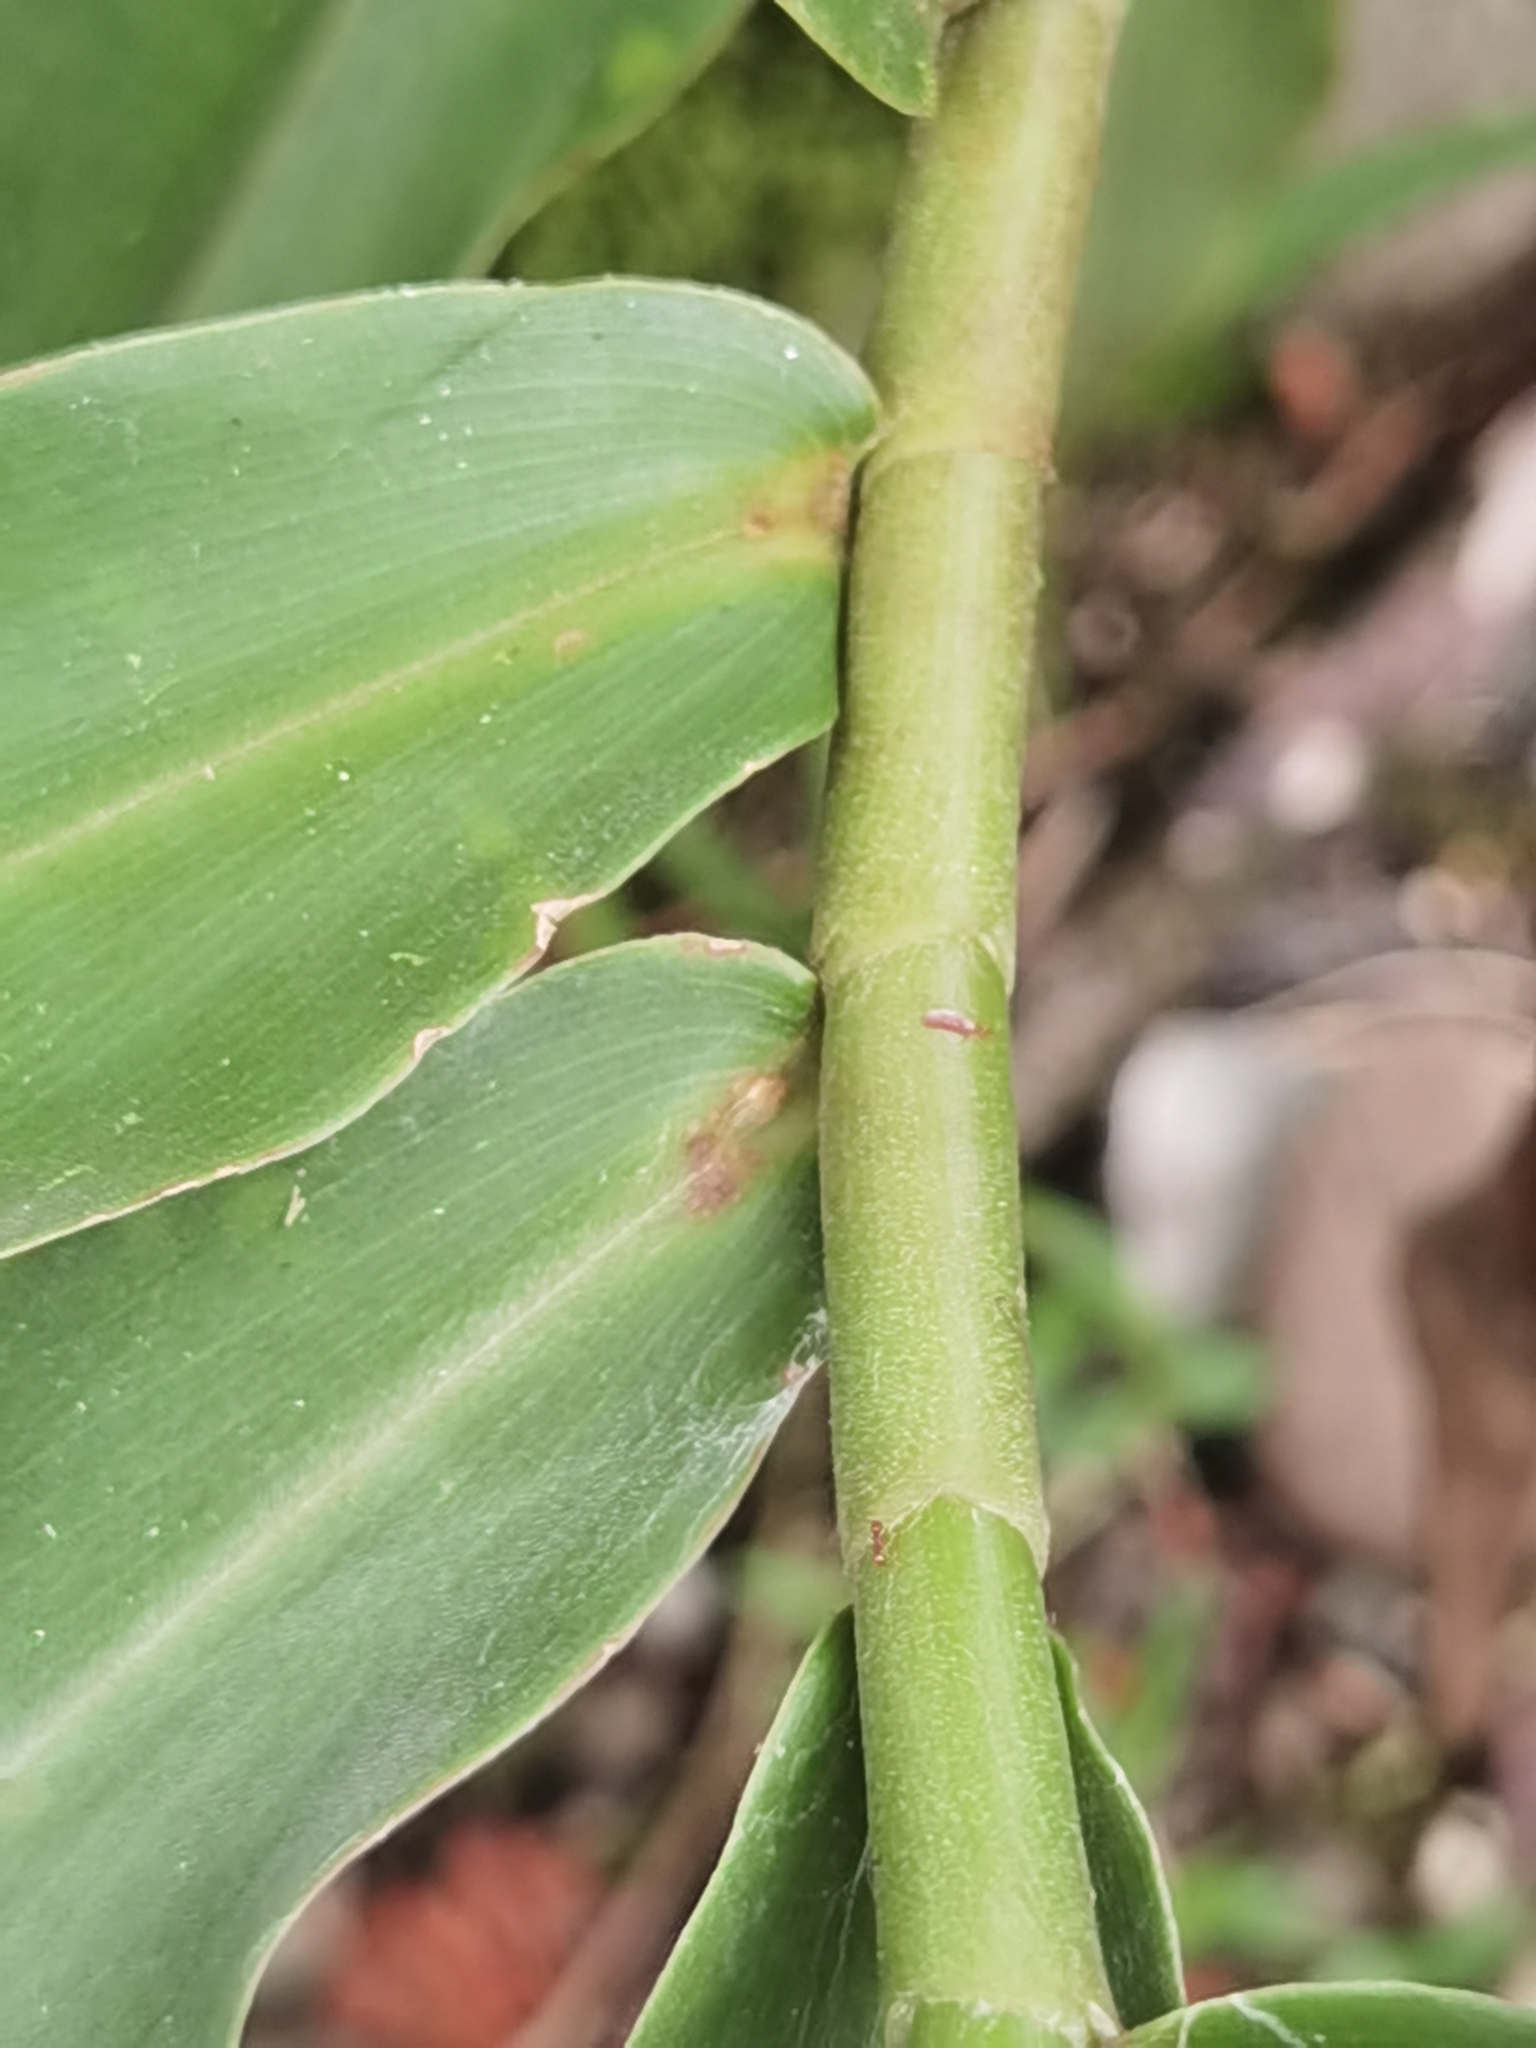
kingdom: Plantae
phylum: Tracheophyta
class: Liliopsida
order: Zingiberales
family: Costaceae
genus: Costus
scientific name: Costus comosus
